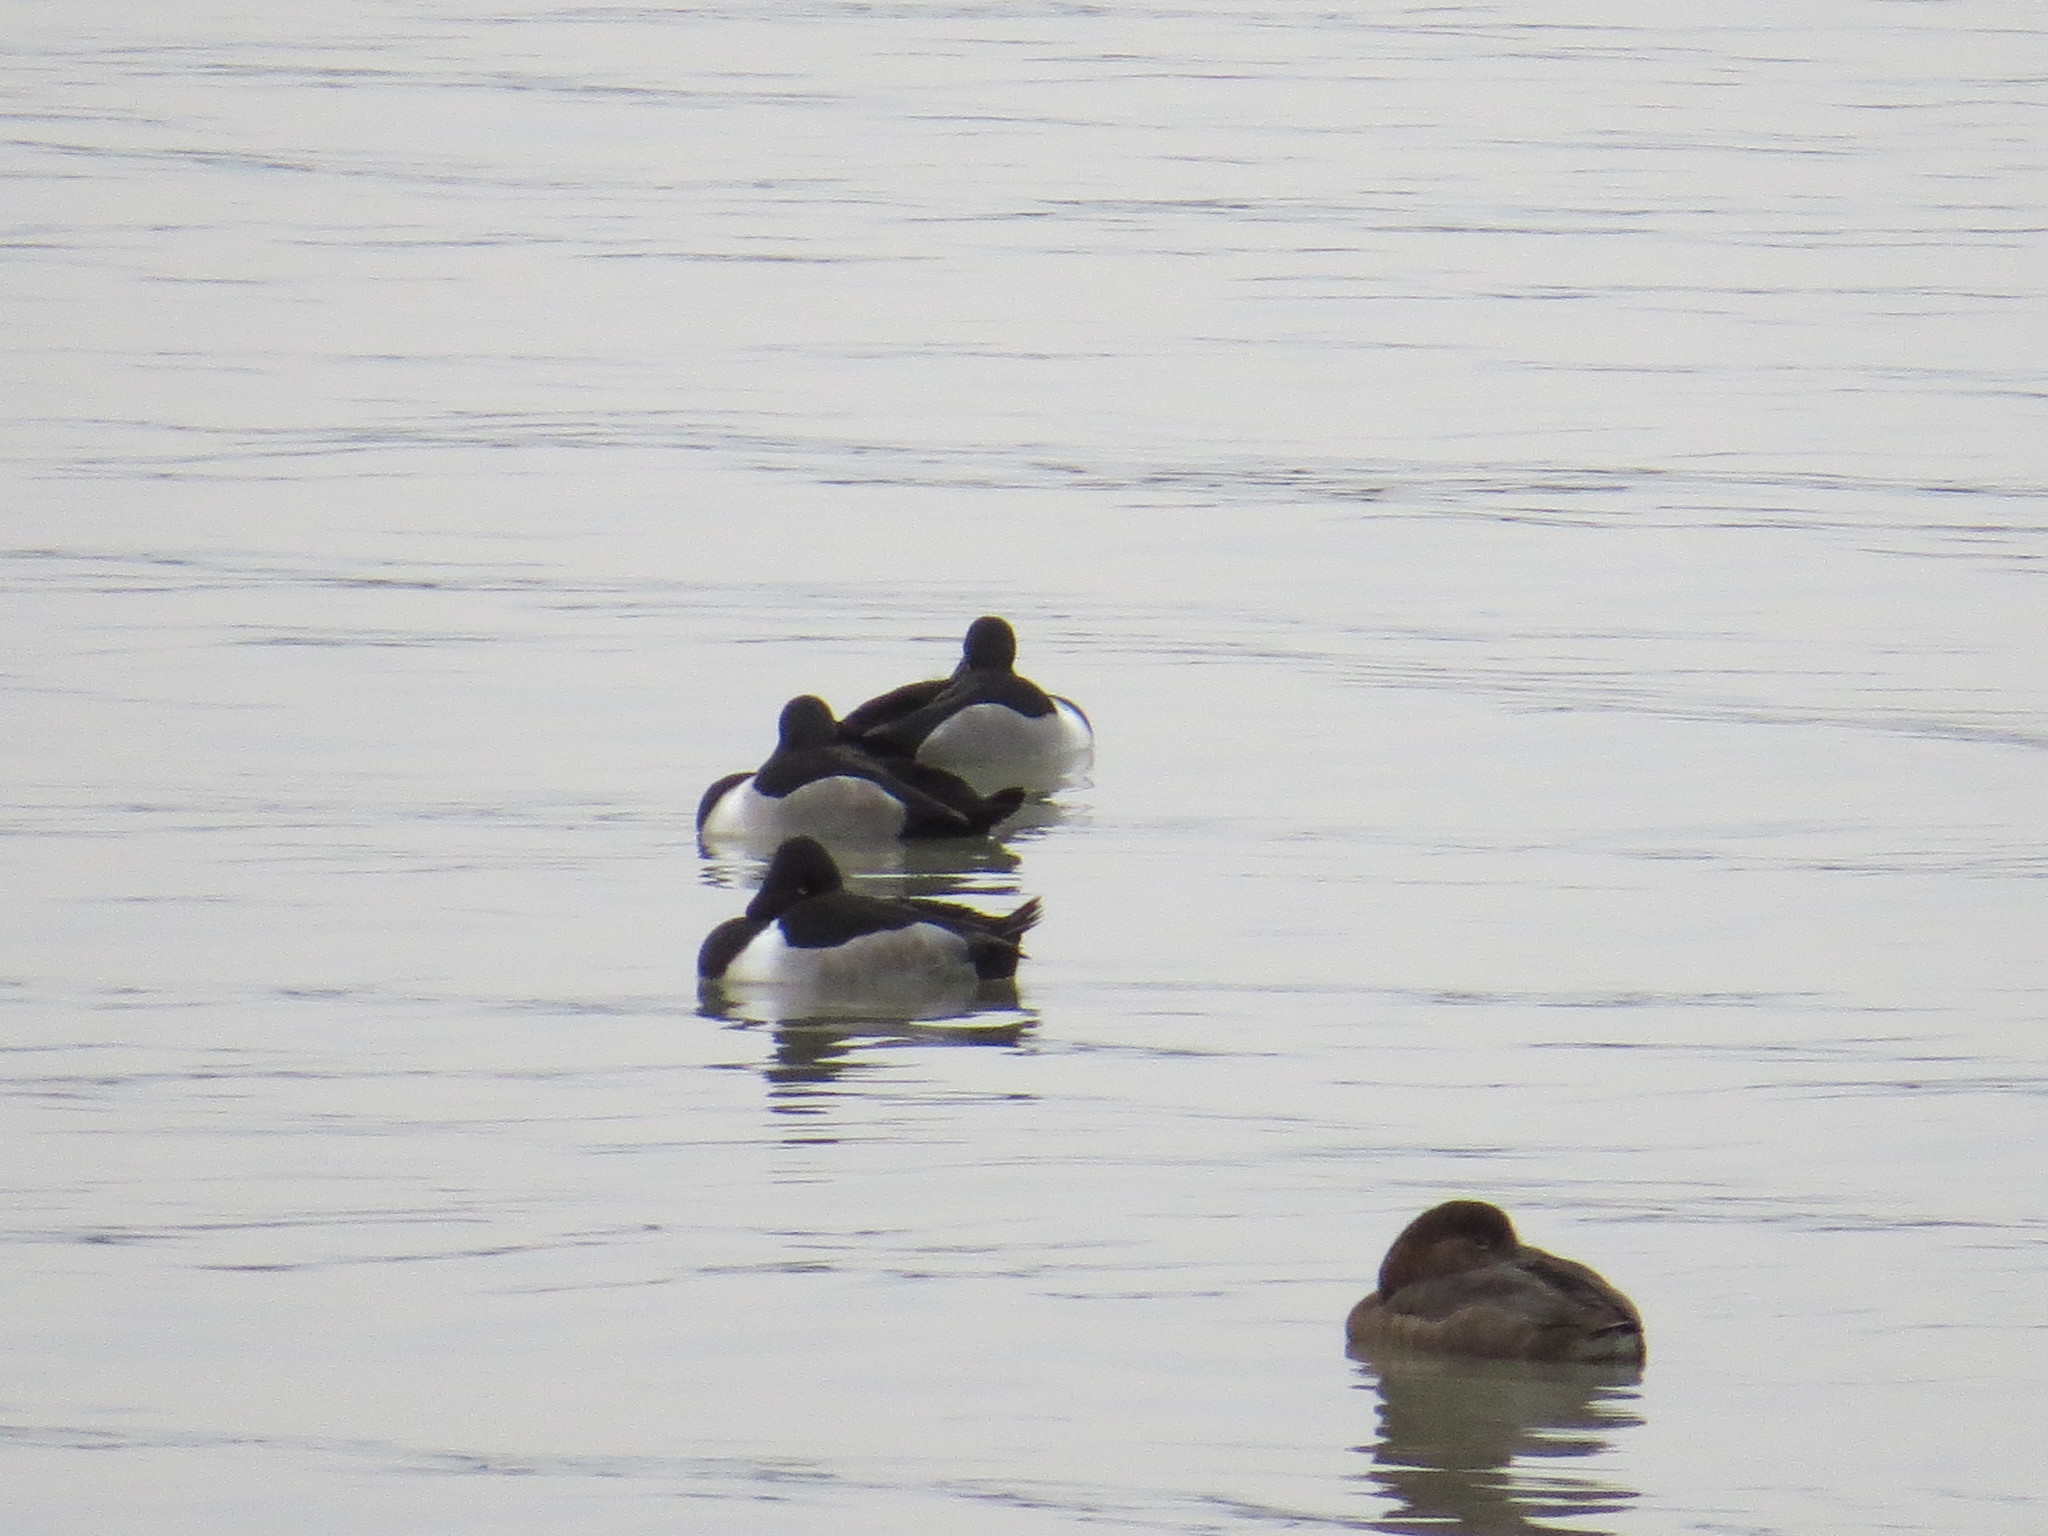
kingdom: Animalia
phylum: Chordata
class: Aves
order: Anseriformes
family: Anatidae
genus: Aythya
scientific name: Aythya collaris
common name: Ring-necked duck
